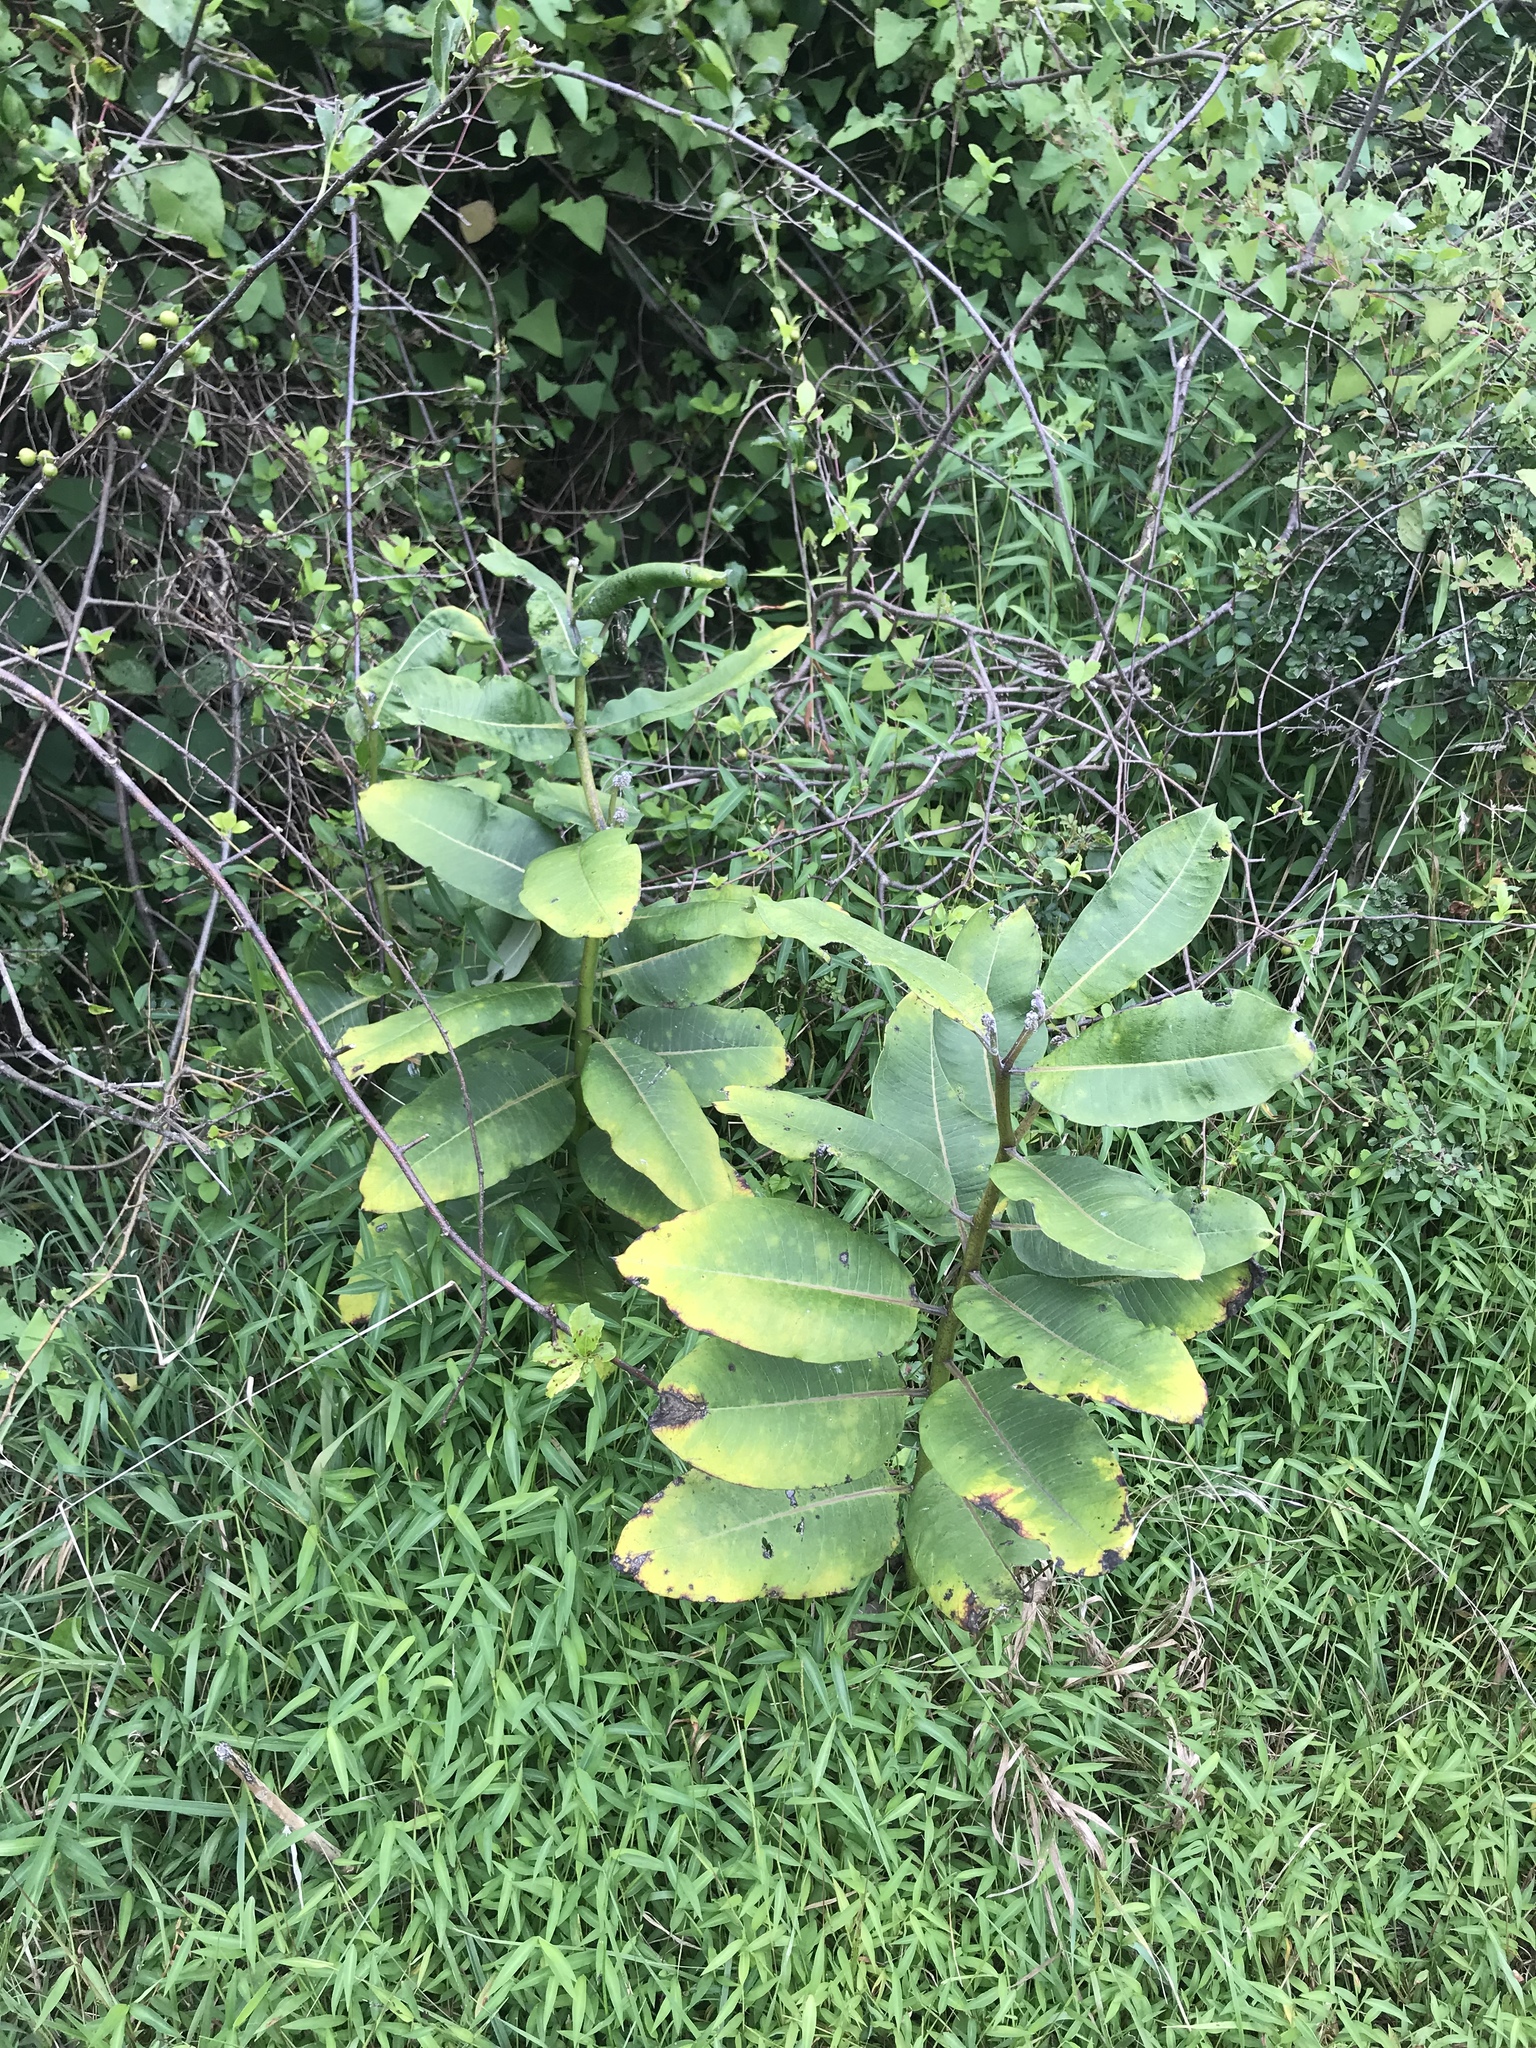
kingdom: Plantae
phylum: Tracheophyta
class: Magnoliopsida
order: Gentianales
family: Apocynaceae
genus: Asclepias
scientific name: Asclepias syriaca
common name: Common milkweed
